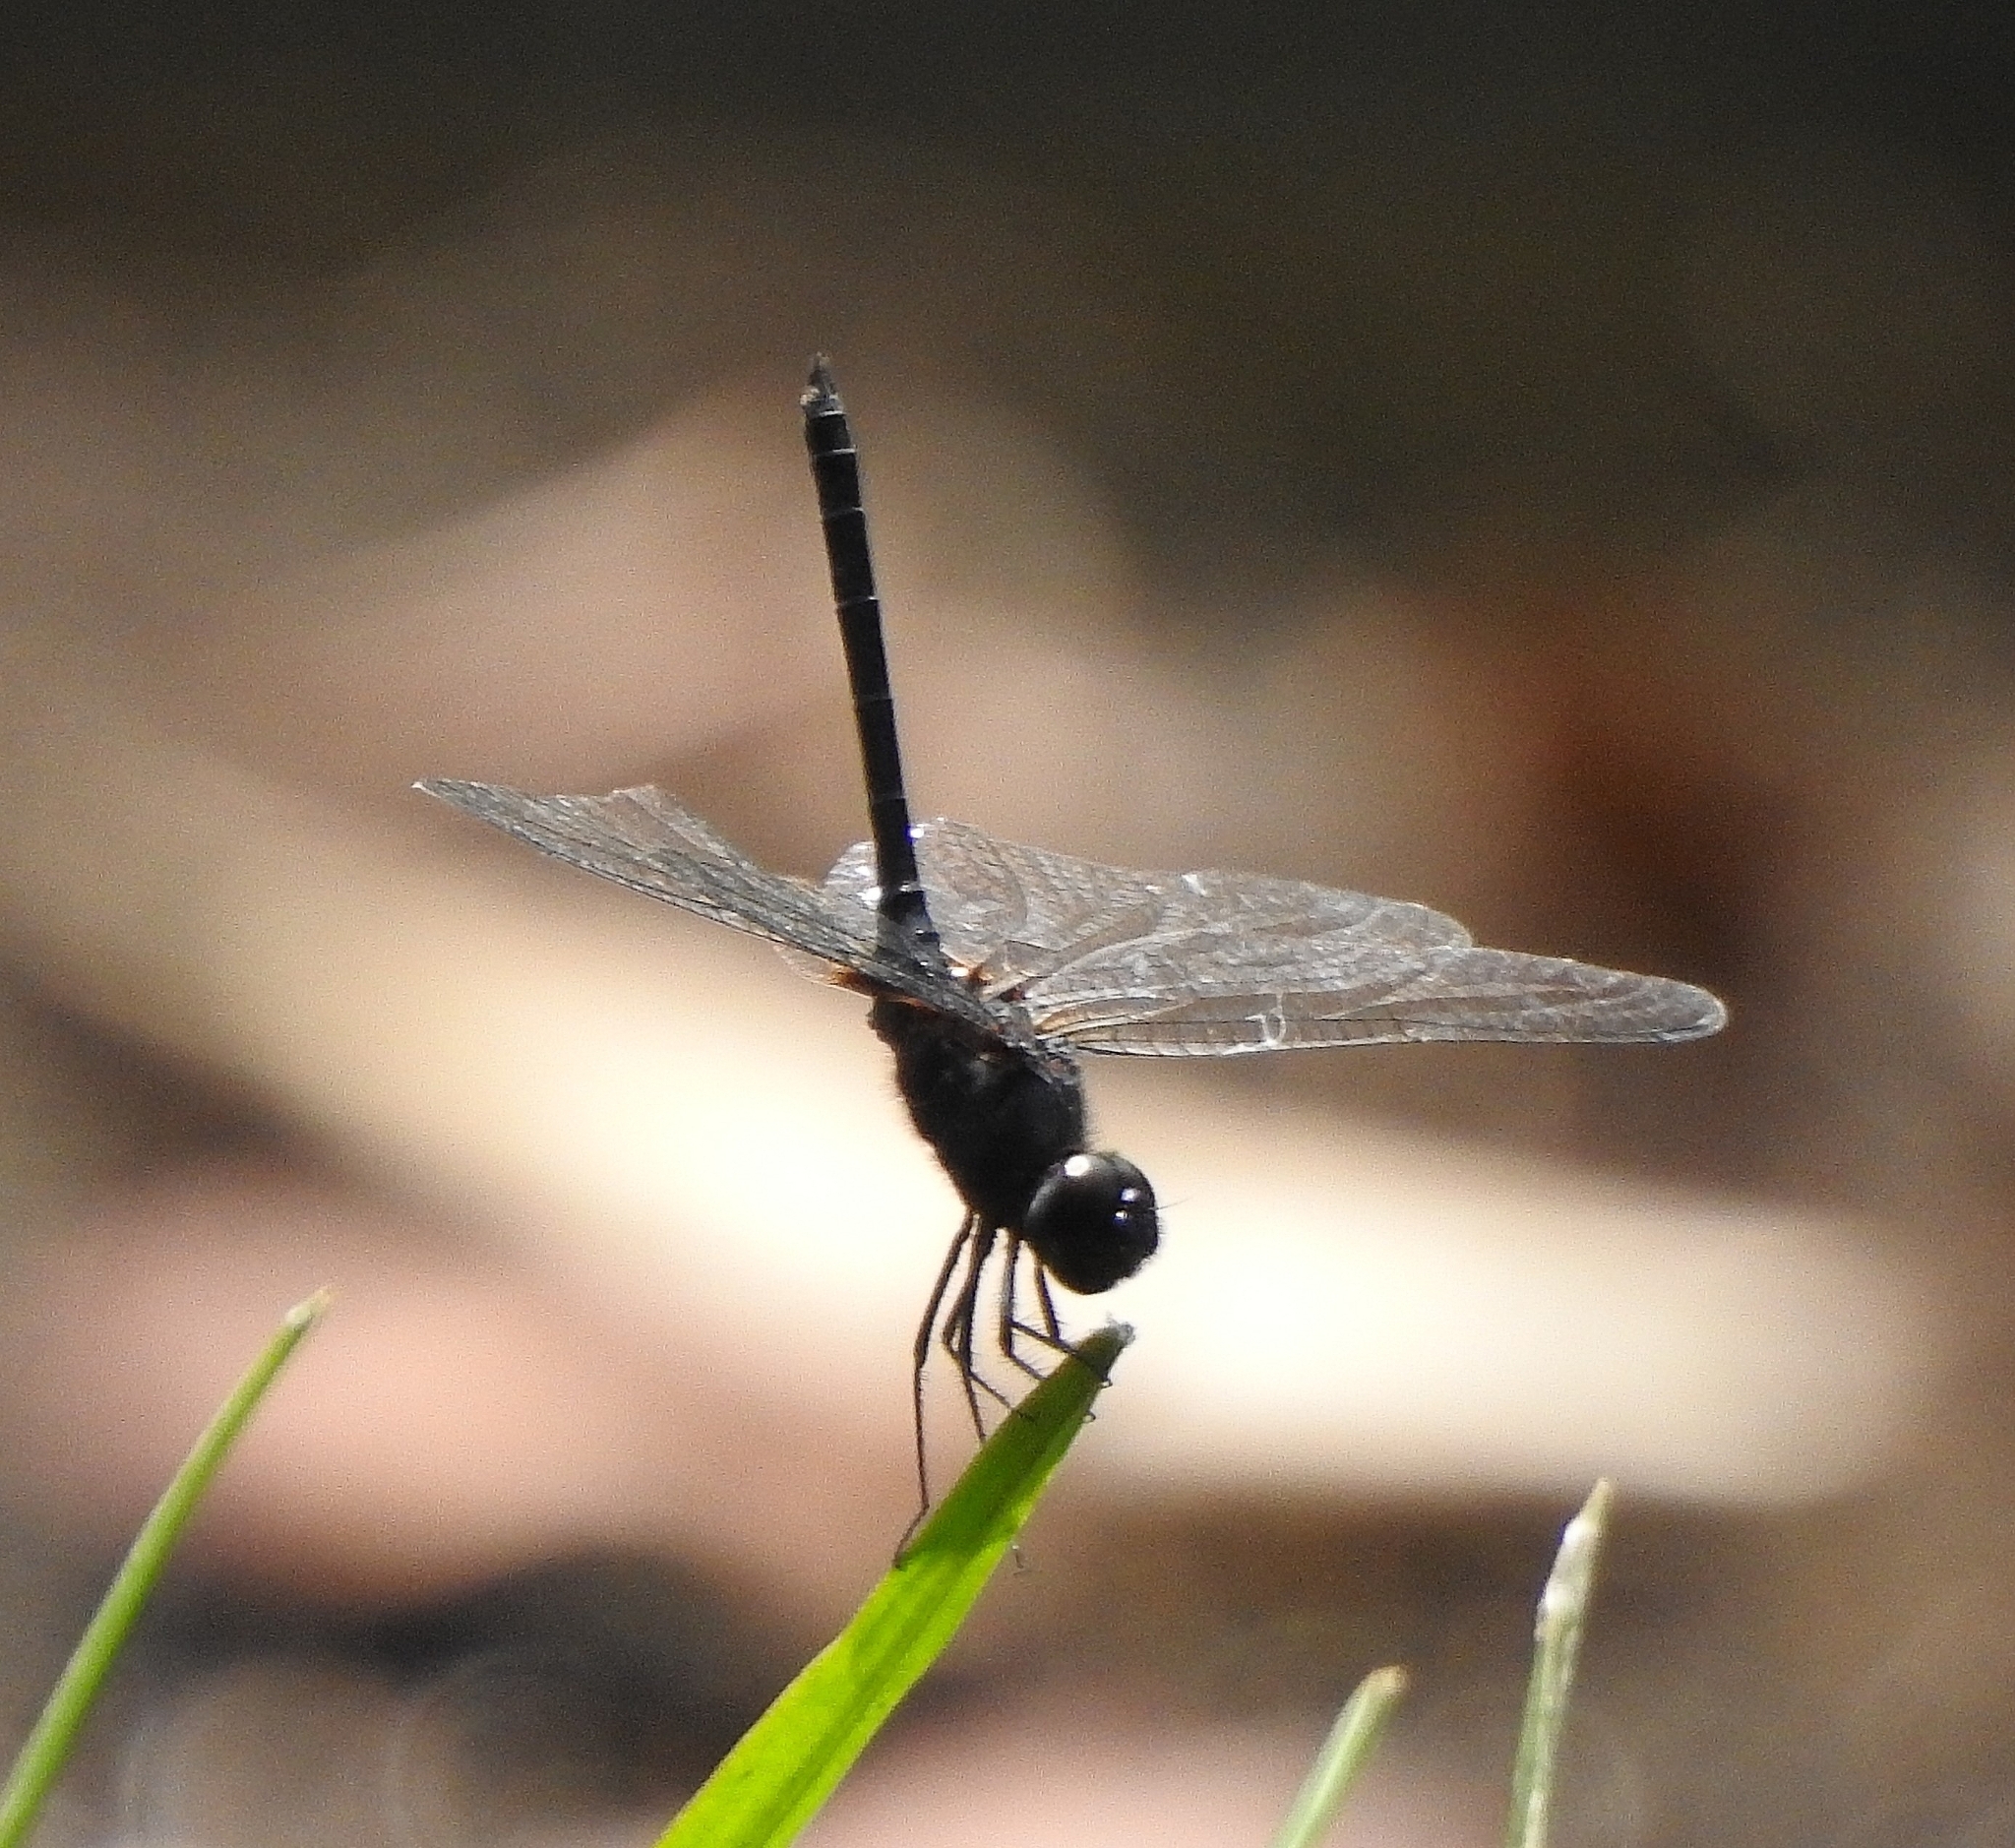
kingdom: Animalia
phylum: Arthropoda
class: Insecta
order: Odonata
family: Libellulidae
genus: Trithemis
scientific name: Trithemis festiva
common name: Indigo dropwing
